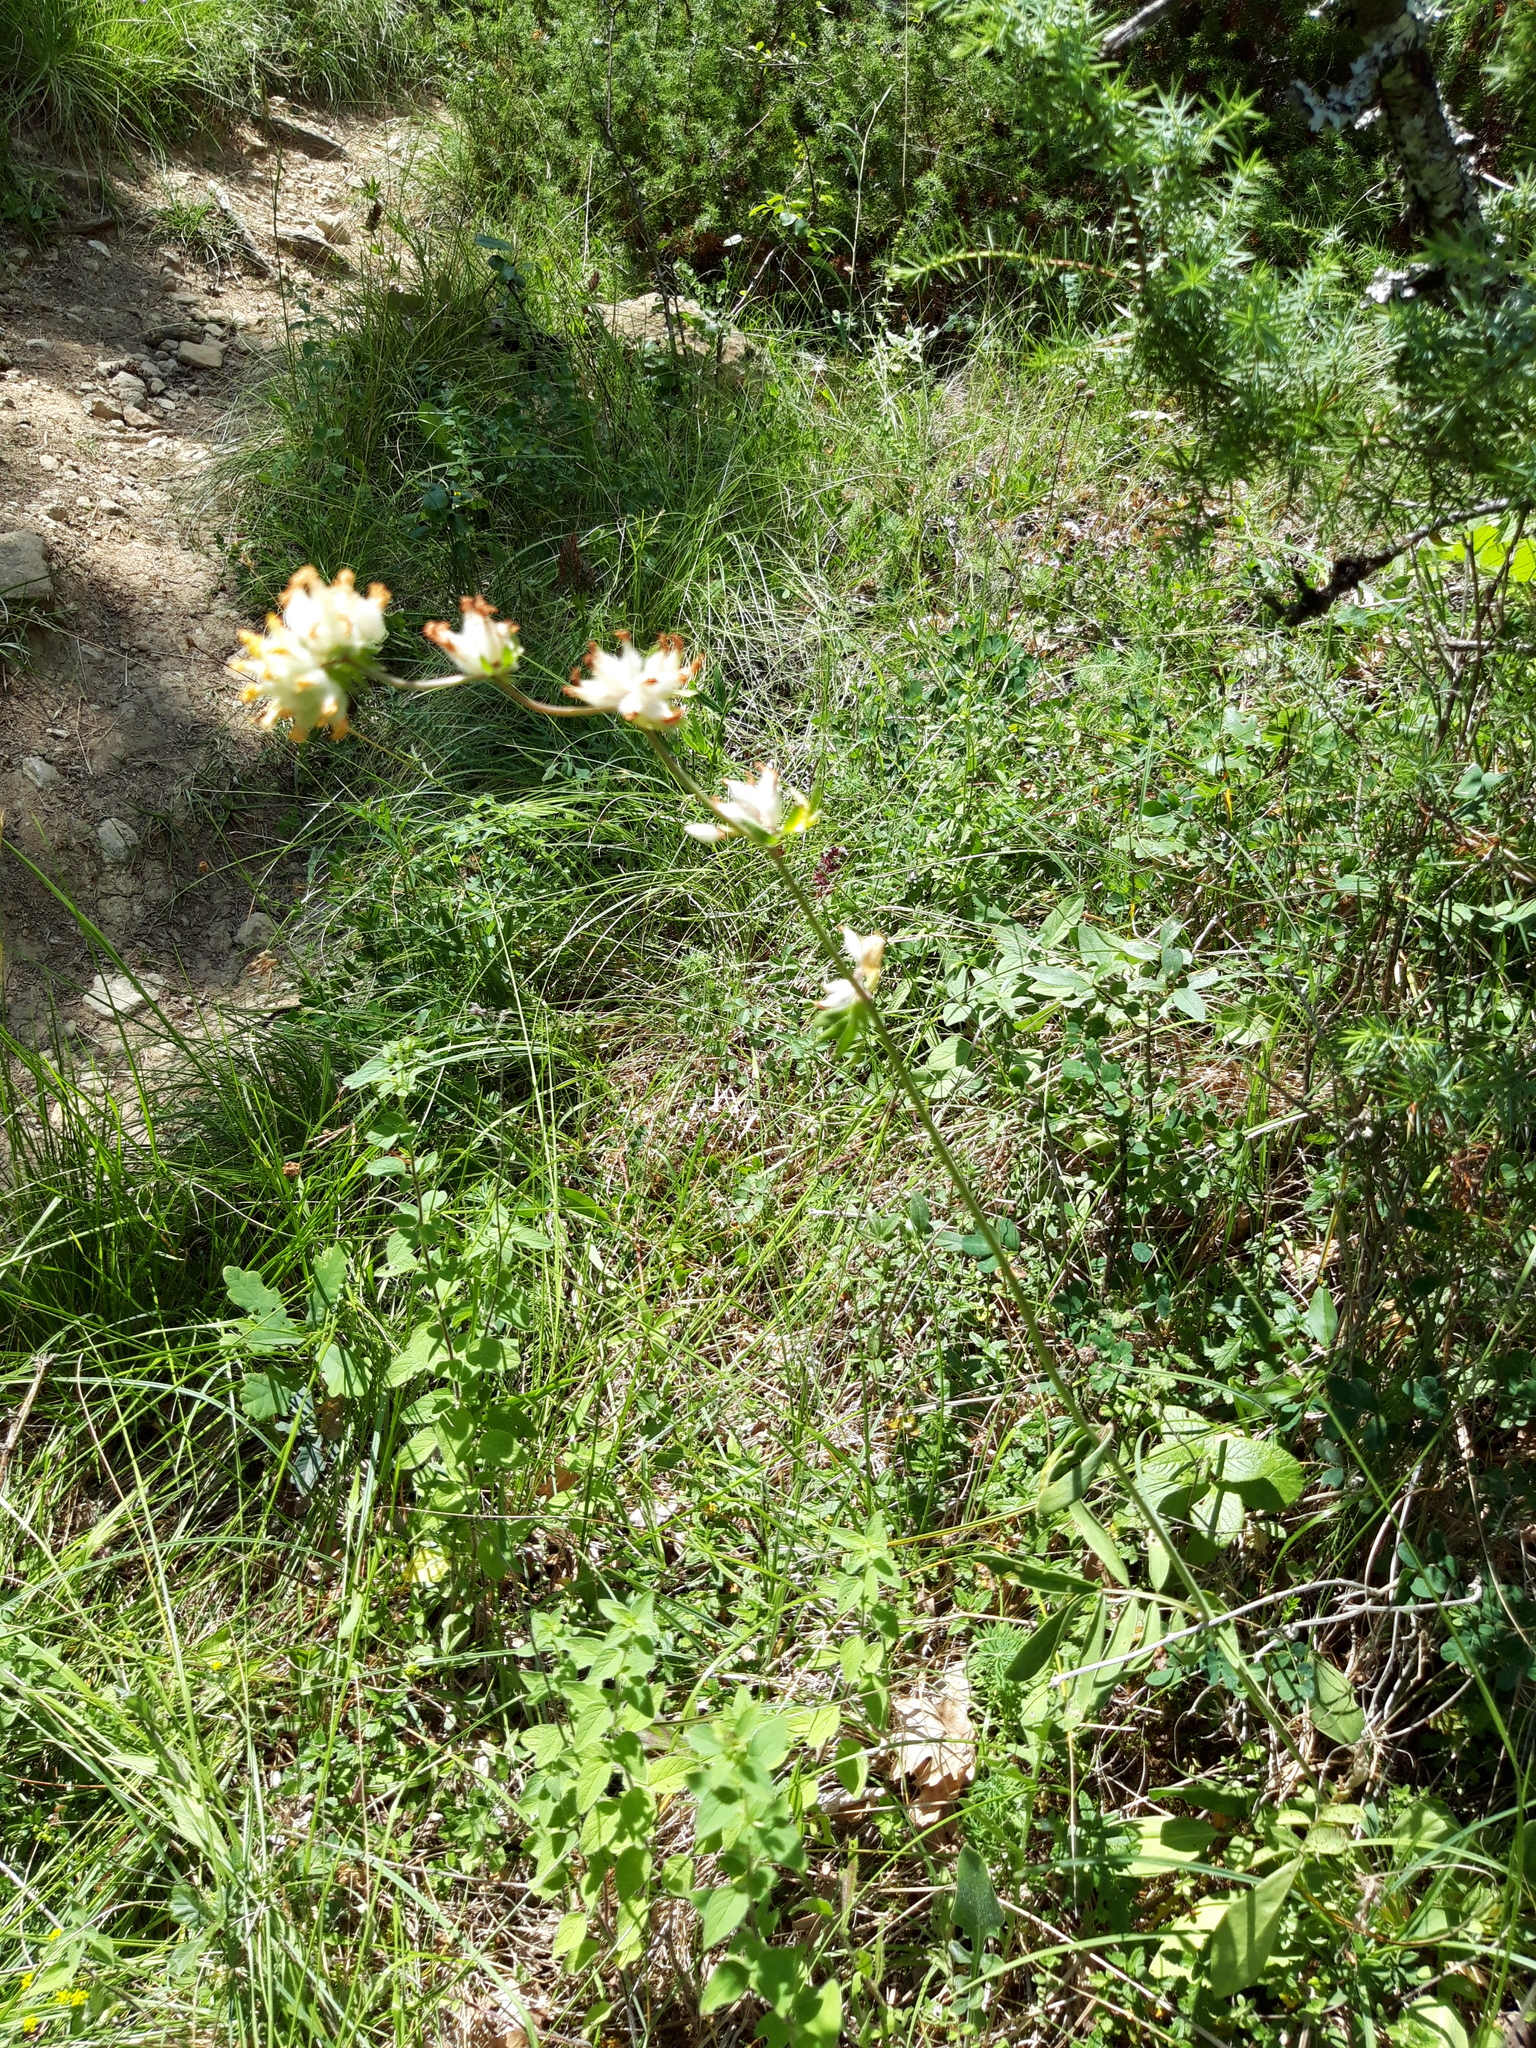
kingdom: Plantae
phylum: Tracheophyta
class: Magnoliopsida
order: Fabales
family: Fabaceae
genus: Anthyllis
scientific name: Anthyllis vulneraria
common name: Kidney vetch
